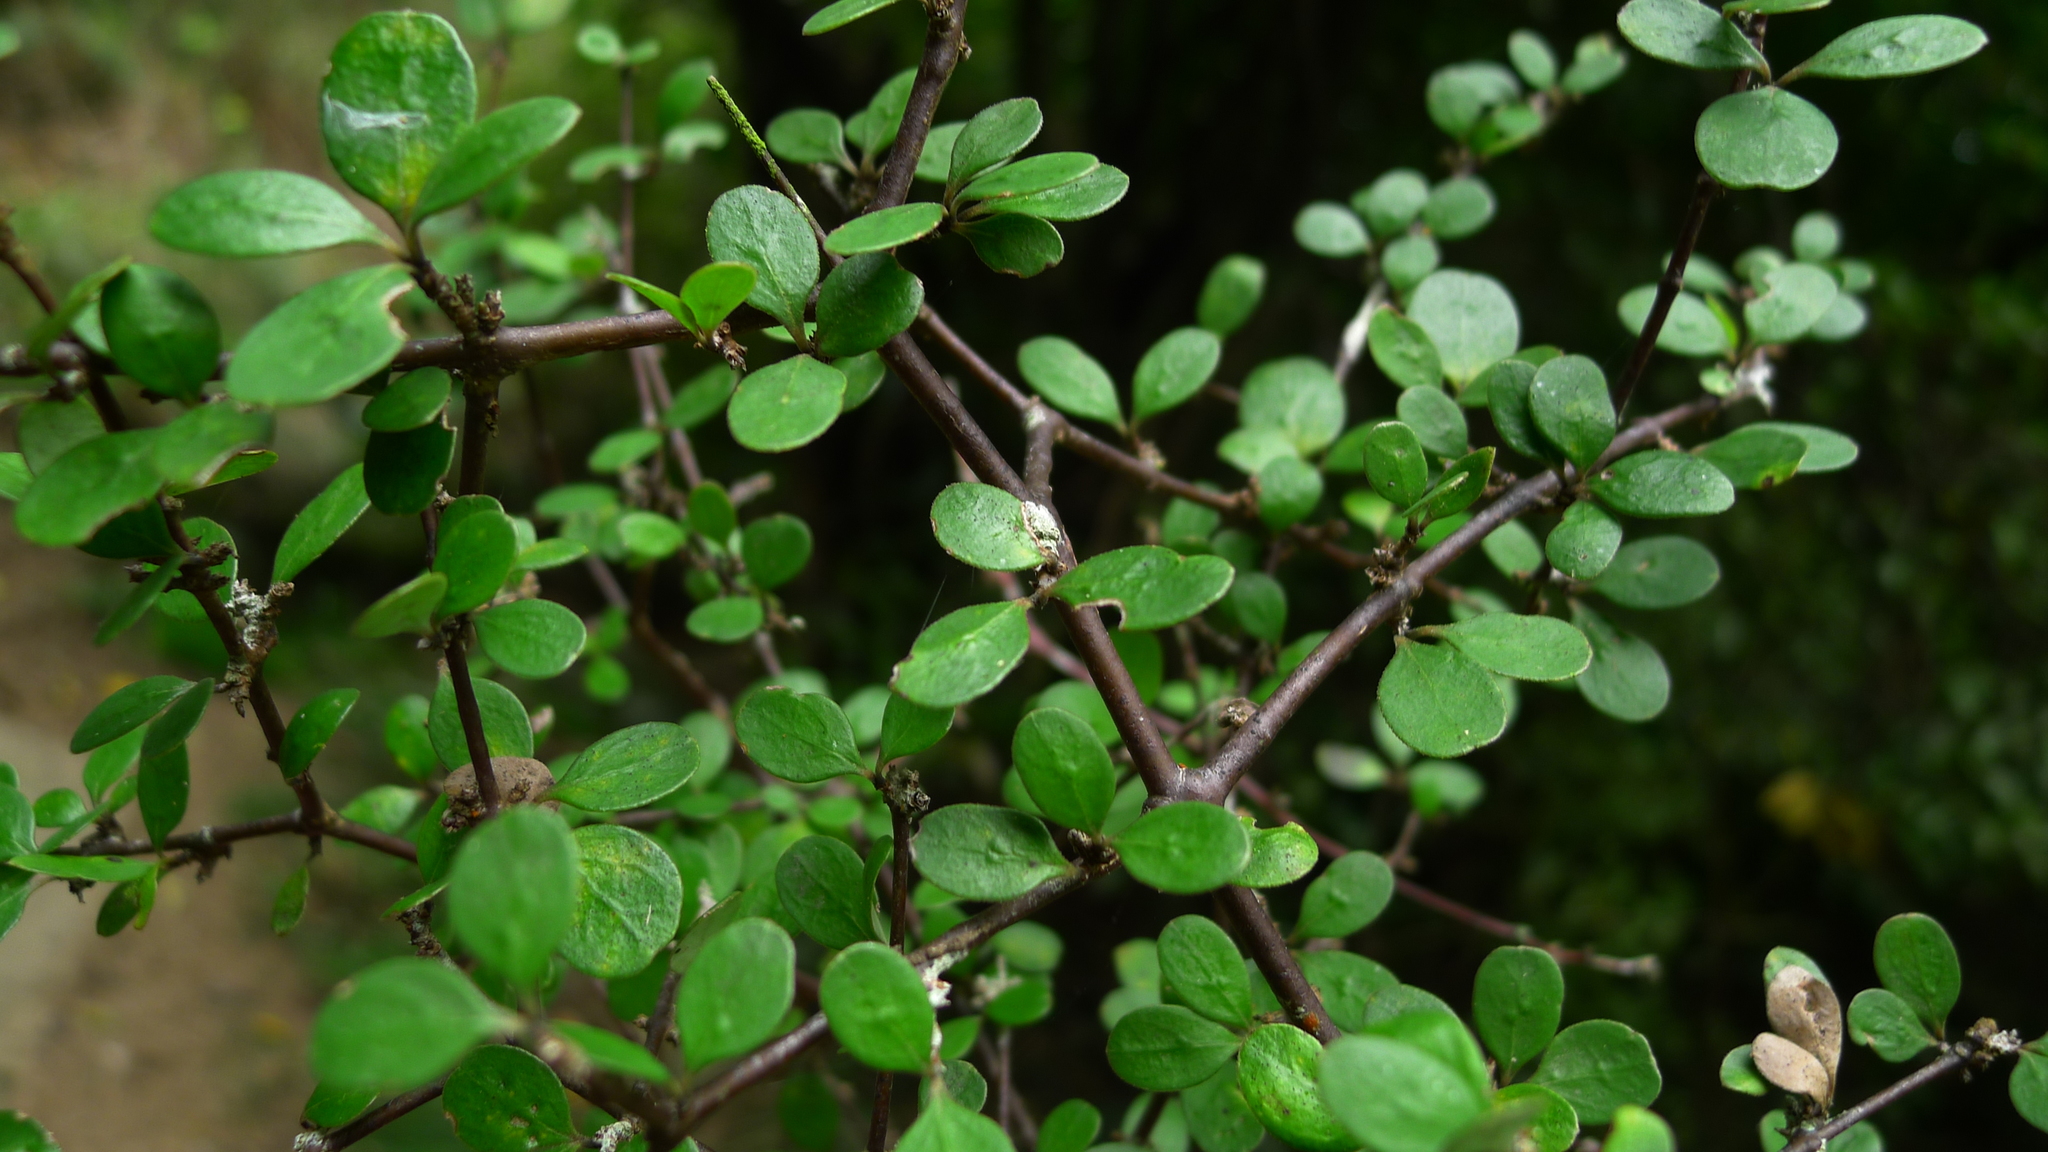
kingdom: Plantae
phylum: Tracheophyta
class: Magnoliopsida
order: Gentianales
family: Rubiaceae
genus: Coprosma
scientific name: Coprosma crassifolia
